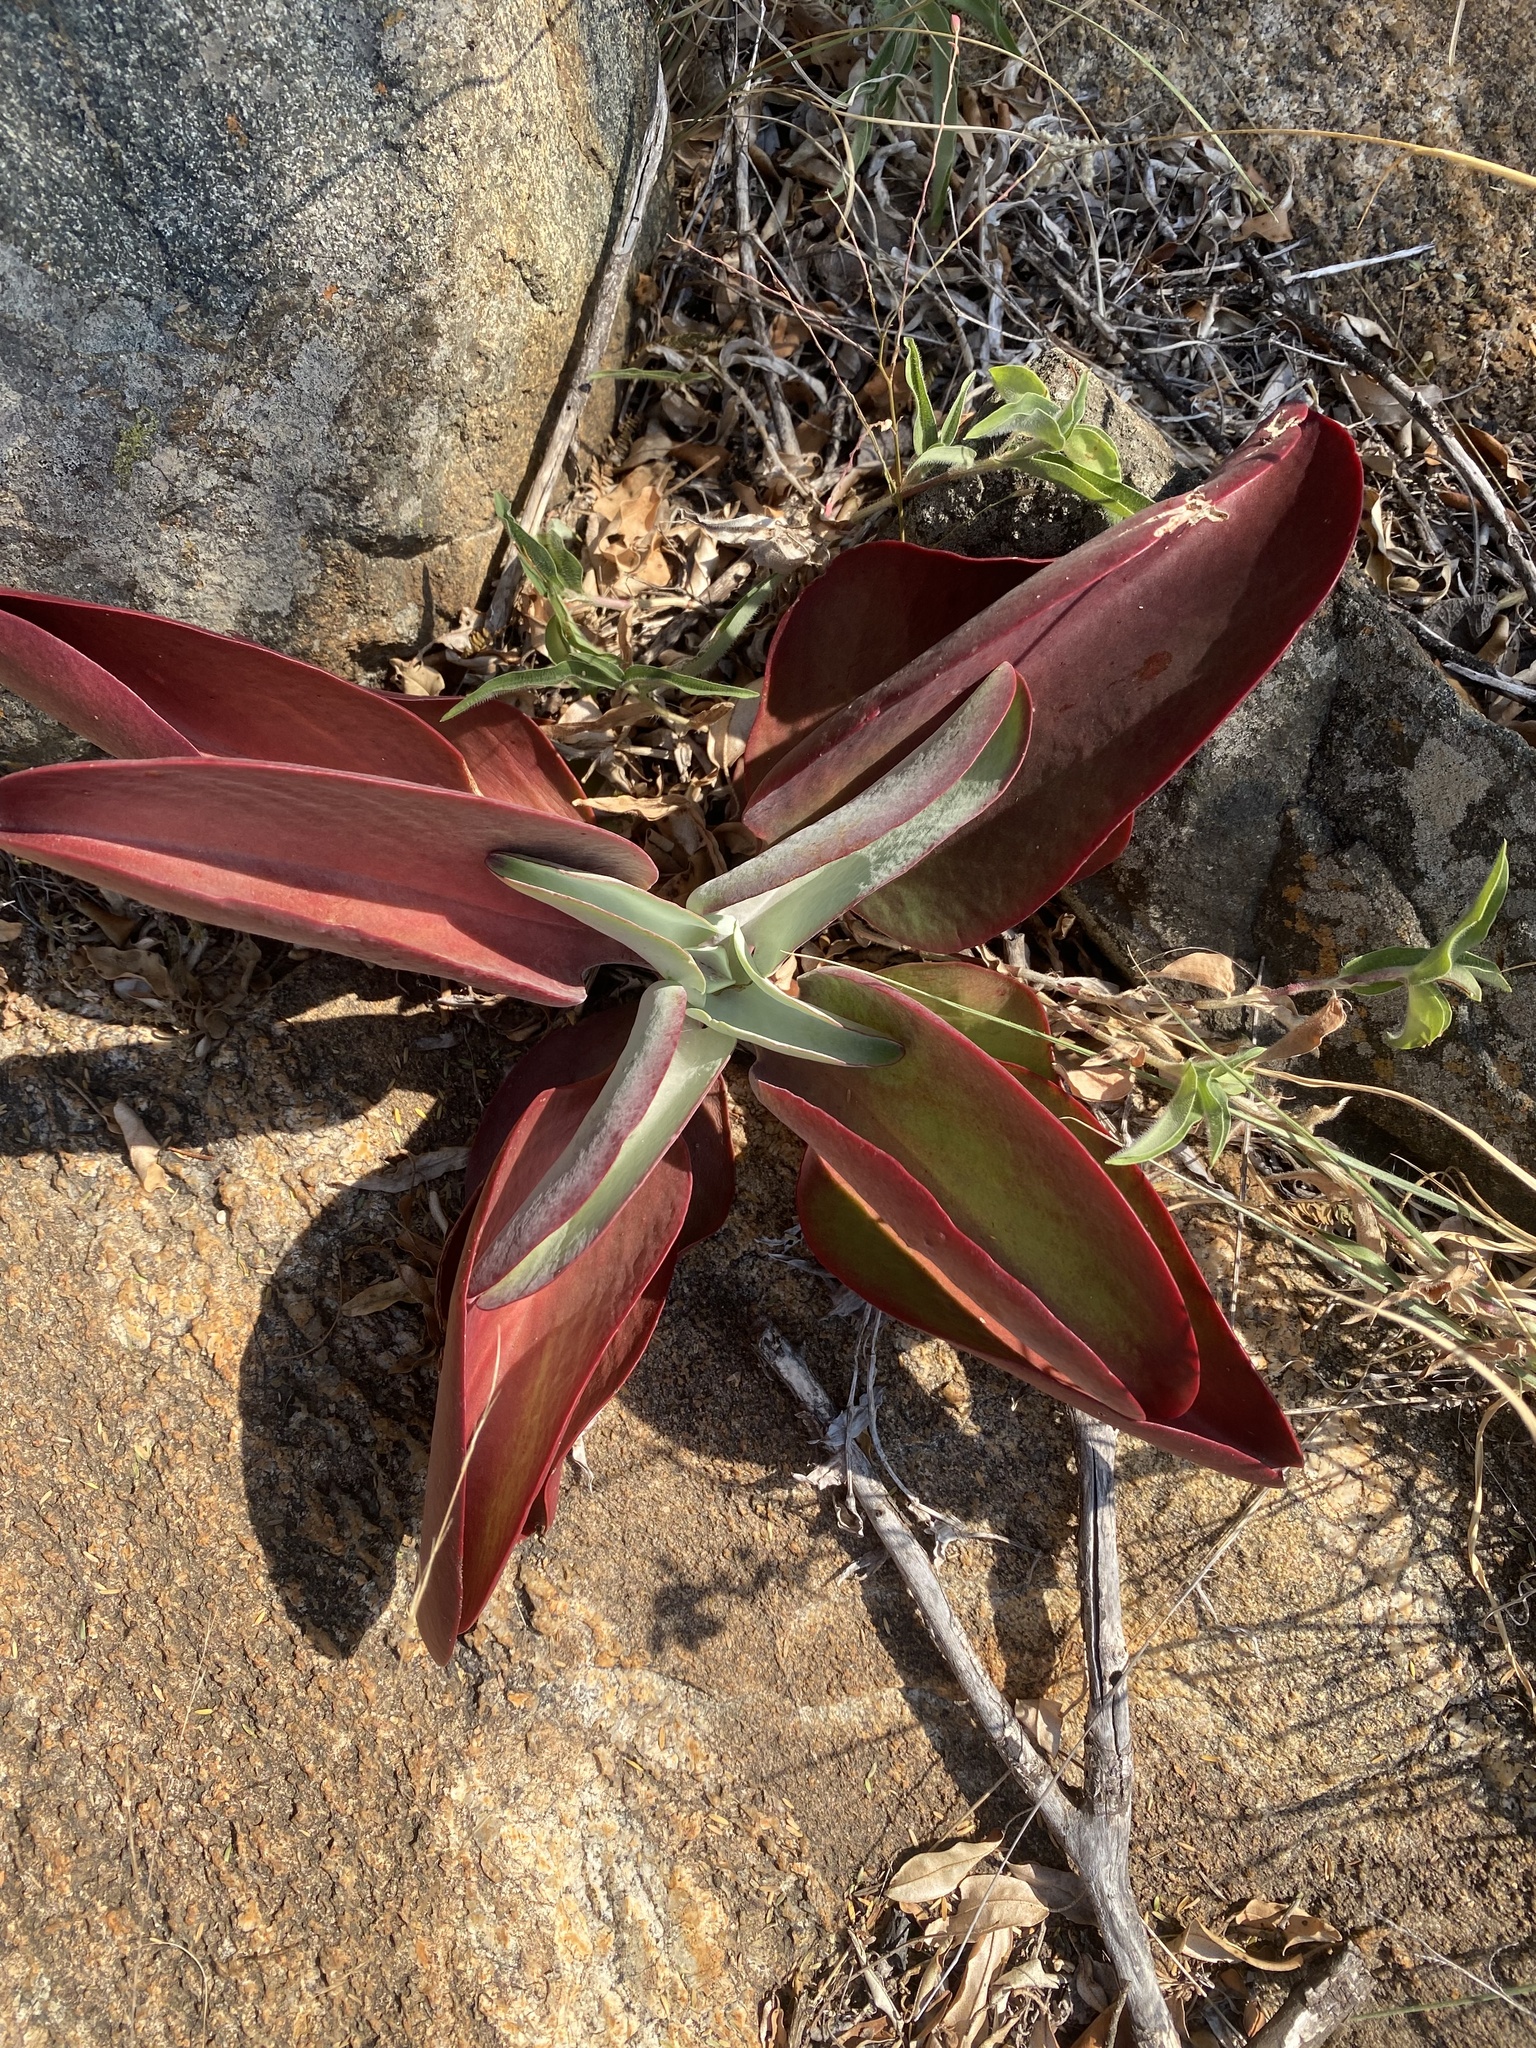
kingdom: Plantae
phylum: Tracheophyta
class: Magnoliopsida
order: Saxifragales
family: Crassulaceae
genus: Kalanchoe
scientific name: Kalanchoe paniculata
